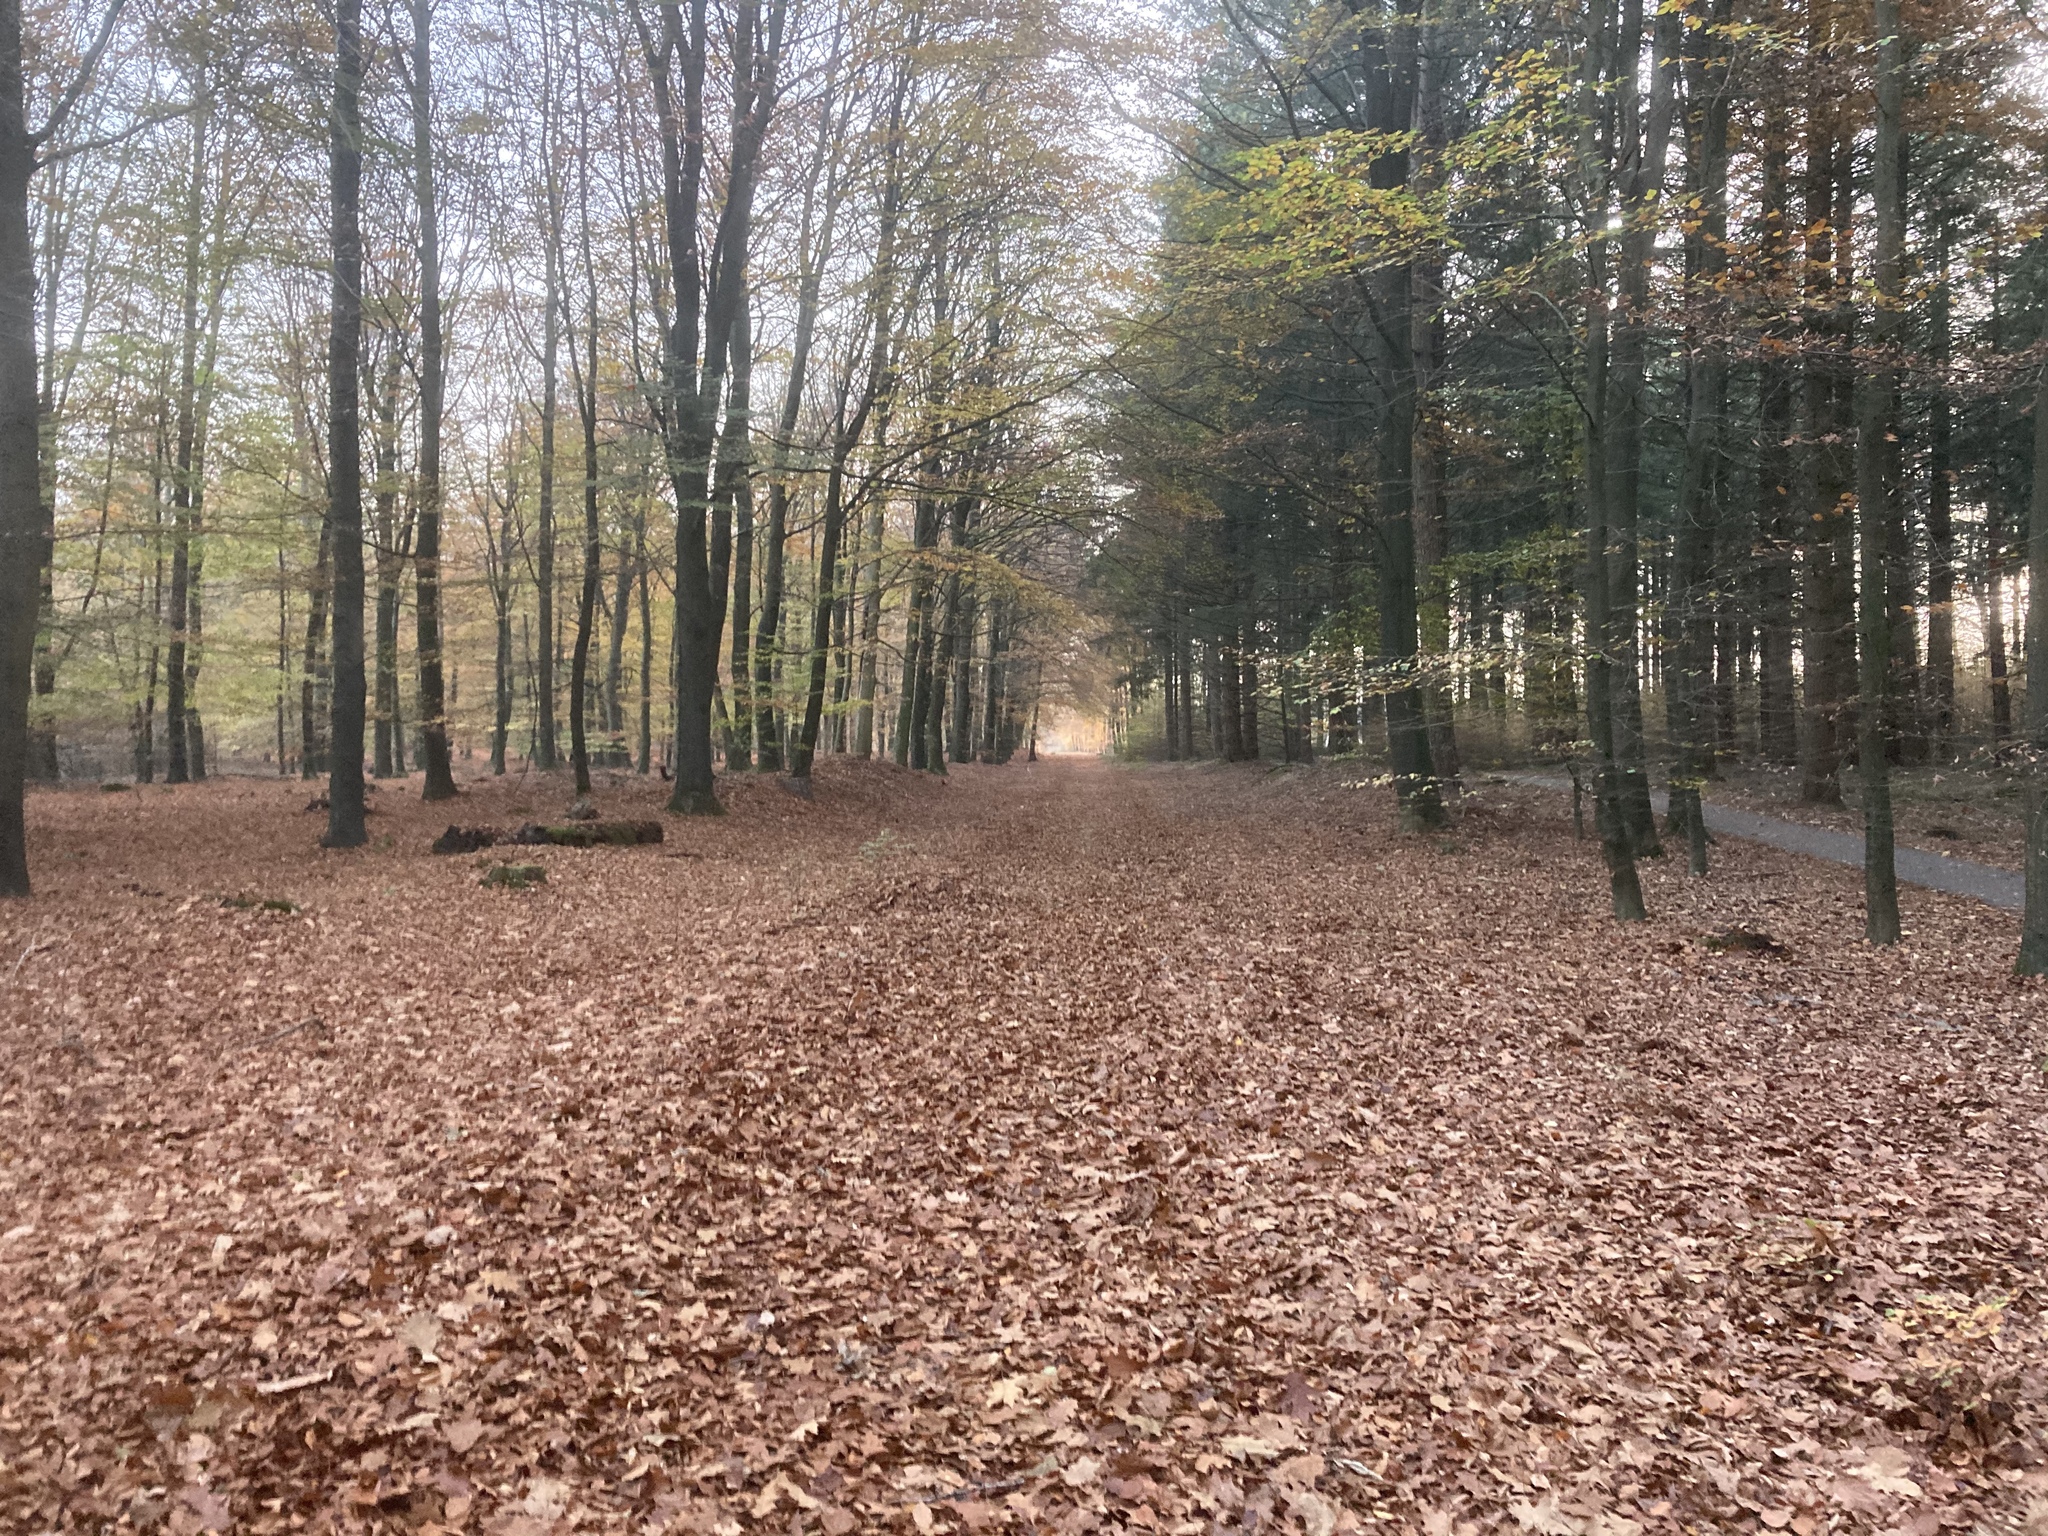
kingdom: Plantae
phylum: Tracheophyta
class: Magnoliopsida
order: Fagales
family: Fagaceae
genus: Fagus
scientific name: Fagus sylvatica
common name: Beech
